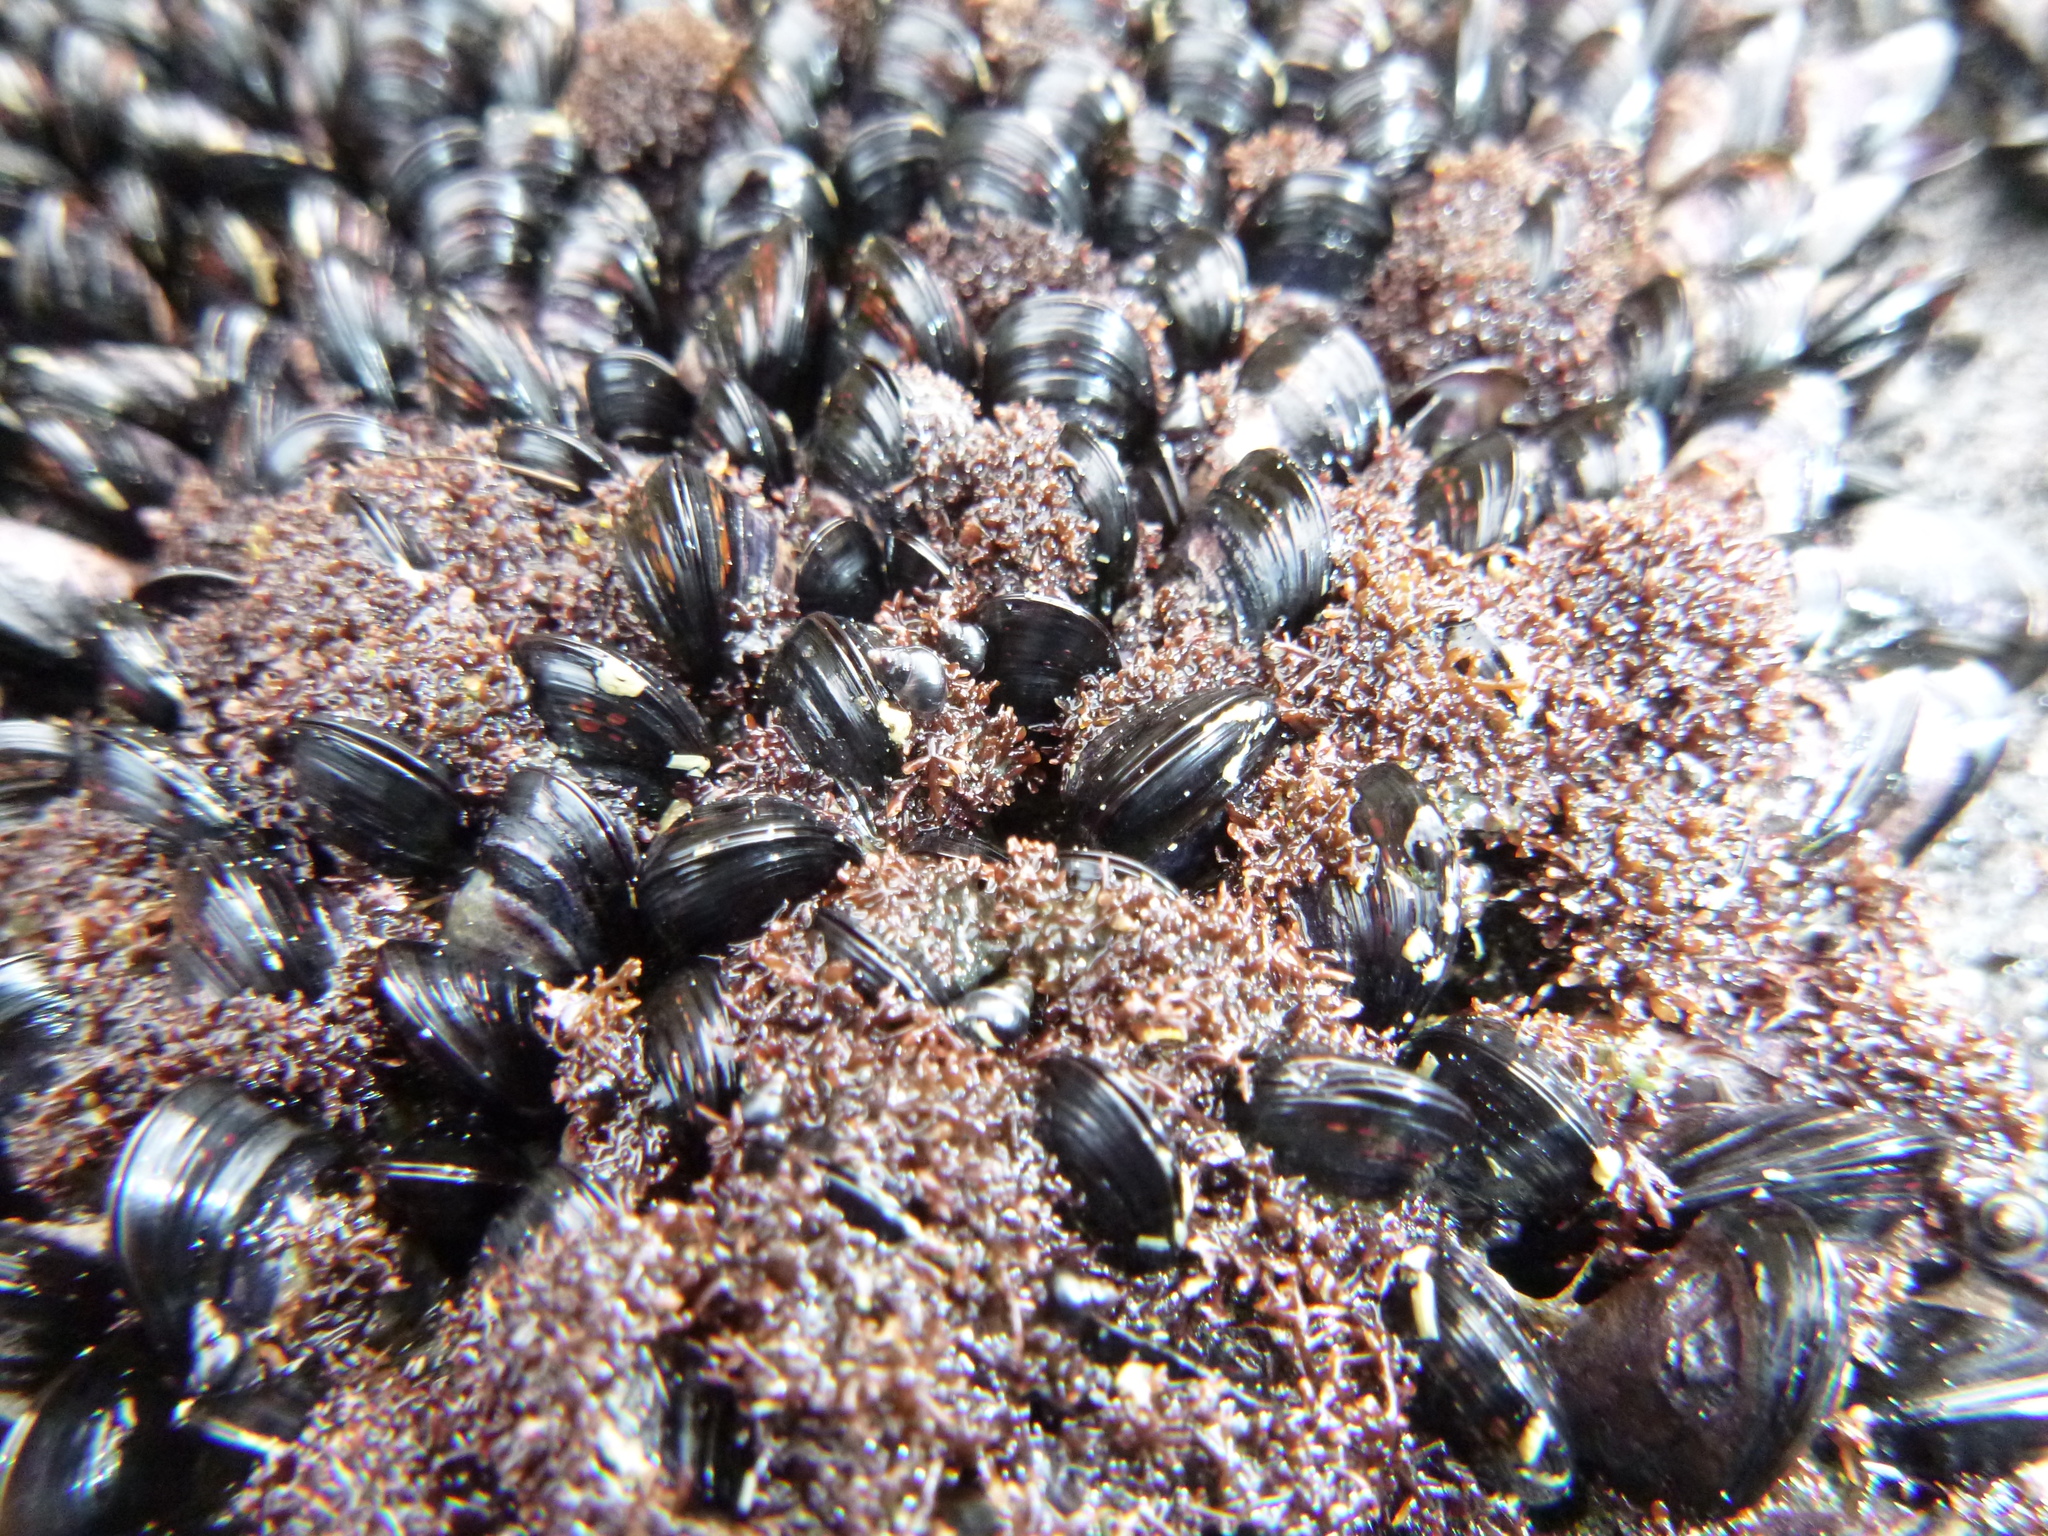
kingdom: Animalia
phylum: Mollusca
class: Bivalvia
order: Mytilida
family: Mytilidae
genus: Xenostrobus
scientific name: Xenostrobus neozelanicus
